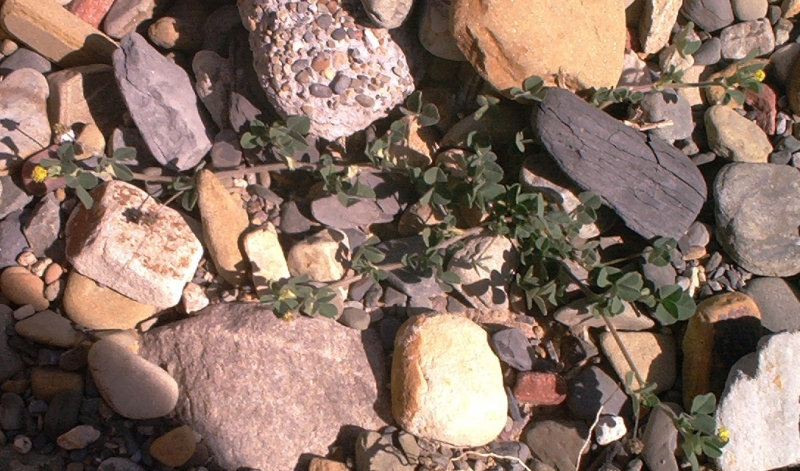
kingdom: Plantae
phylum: Tracheophyta
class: Magnoliopsida
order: Fabales
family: Fabaceae
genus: Medicago
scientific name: Medicago lupulina
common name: Black medick
